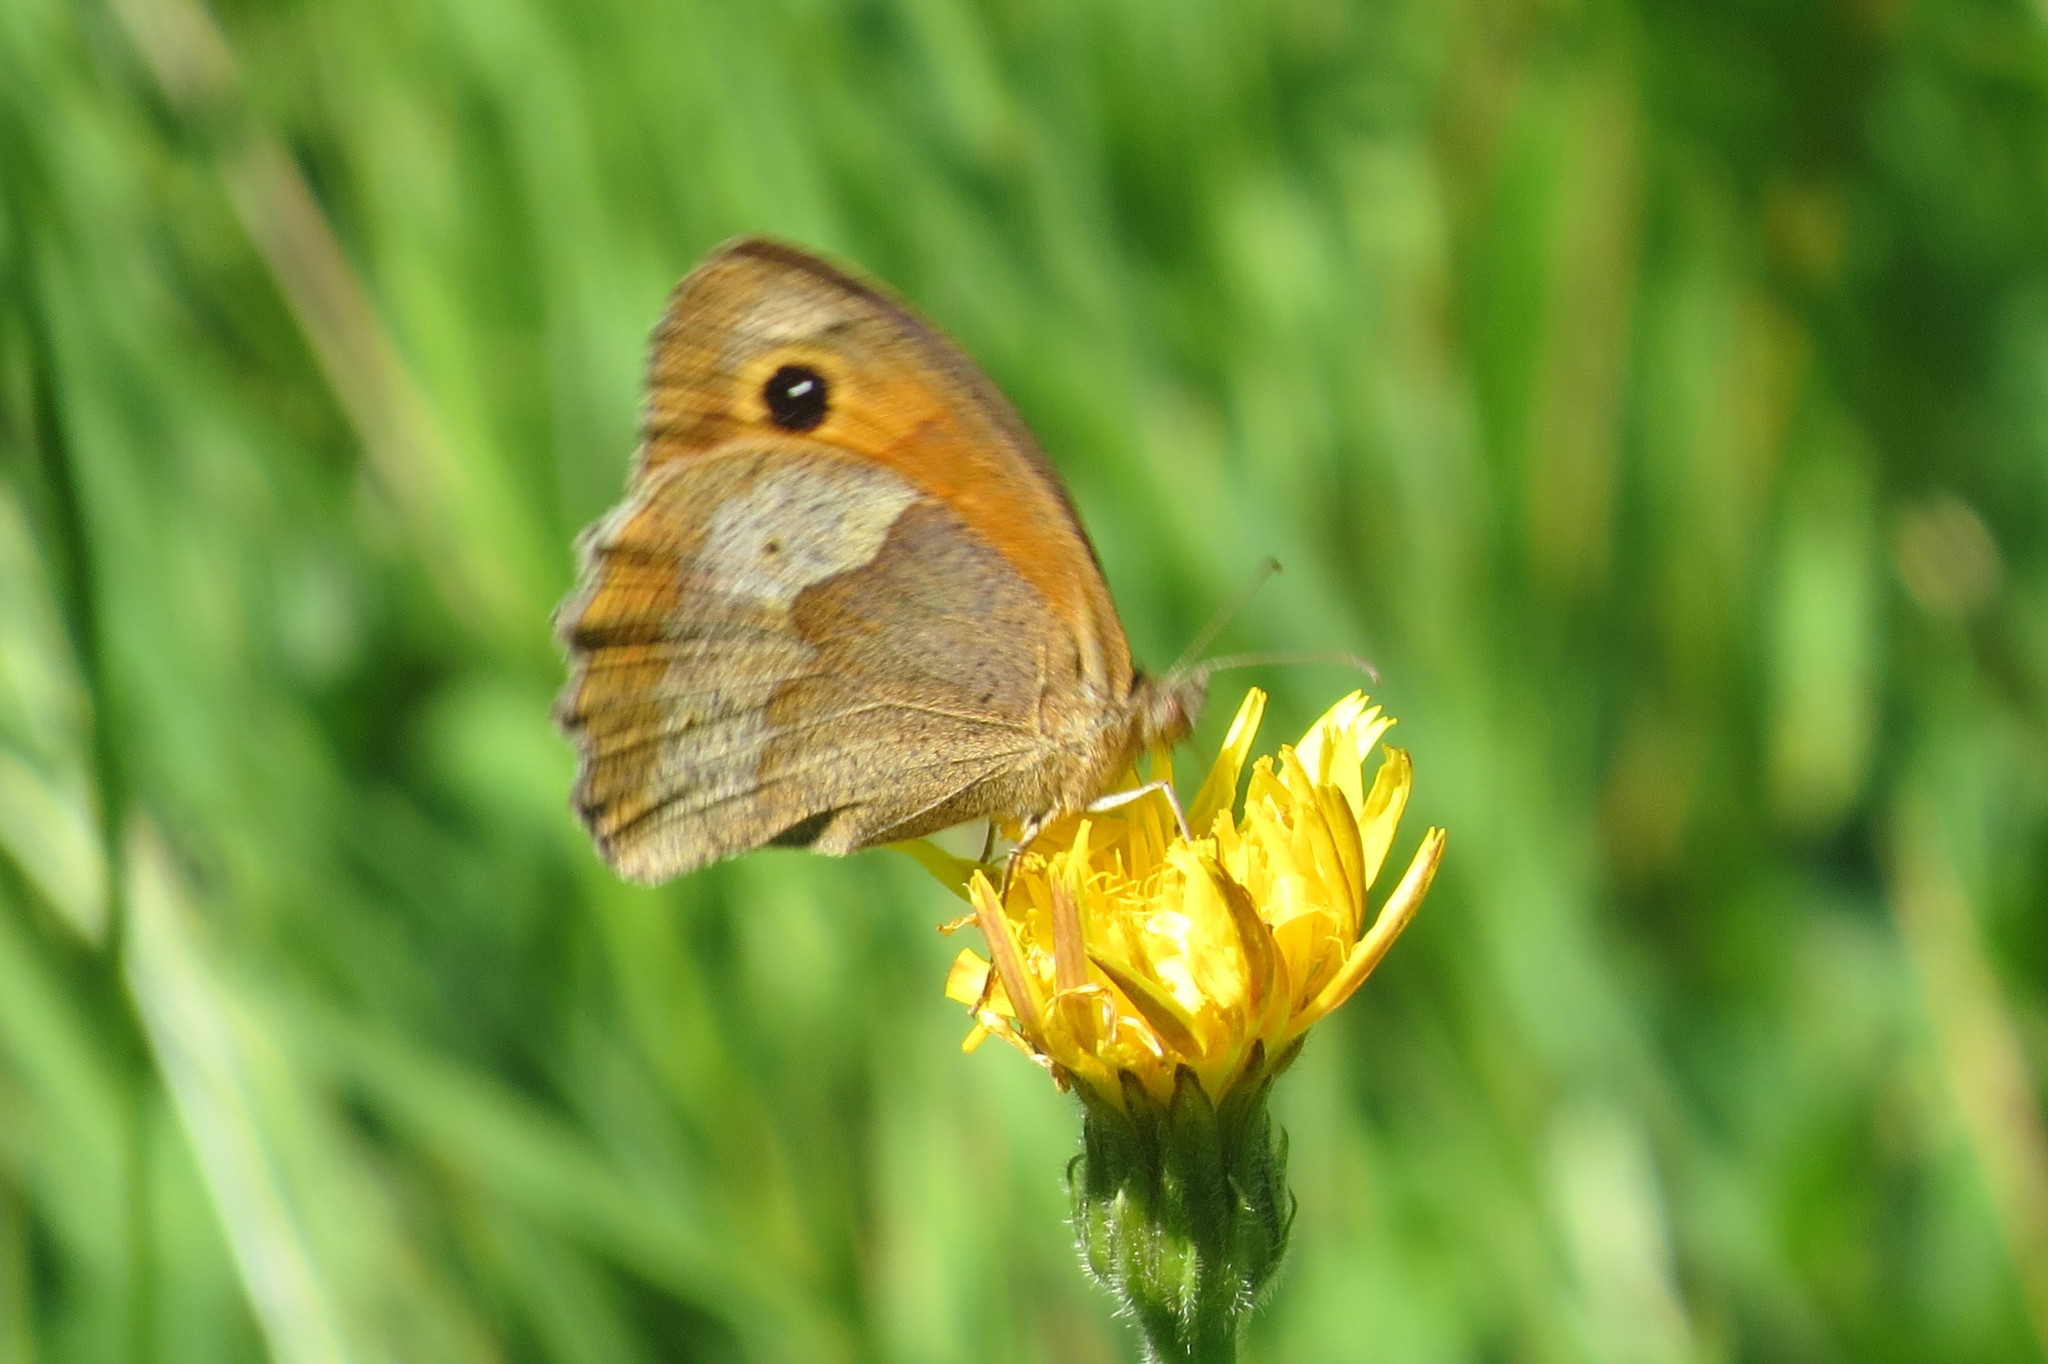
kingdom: Animalia
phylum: Arthropoda
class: Insecta
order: Lepidoptera
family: Nymphalidae
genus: Maniola
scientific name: Maniola jurtina
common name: Meadow brown
